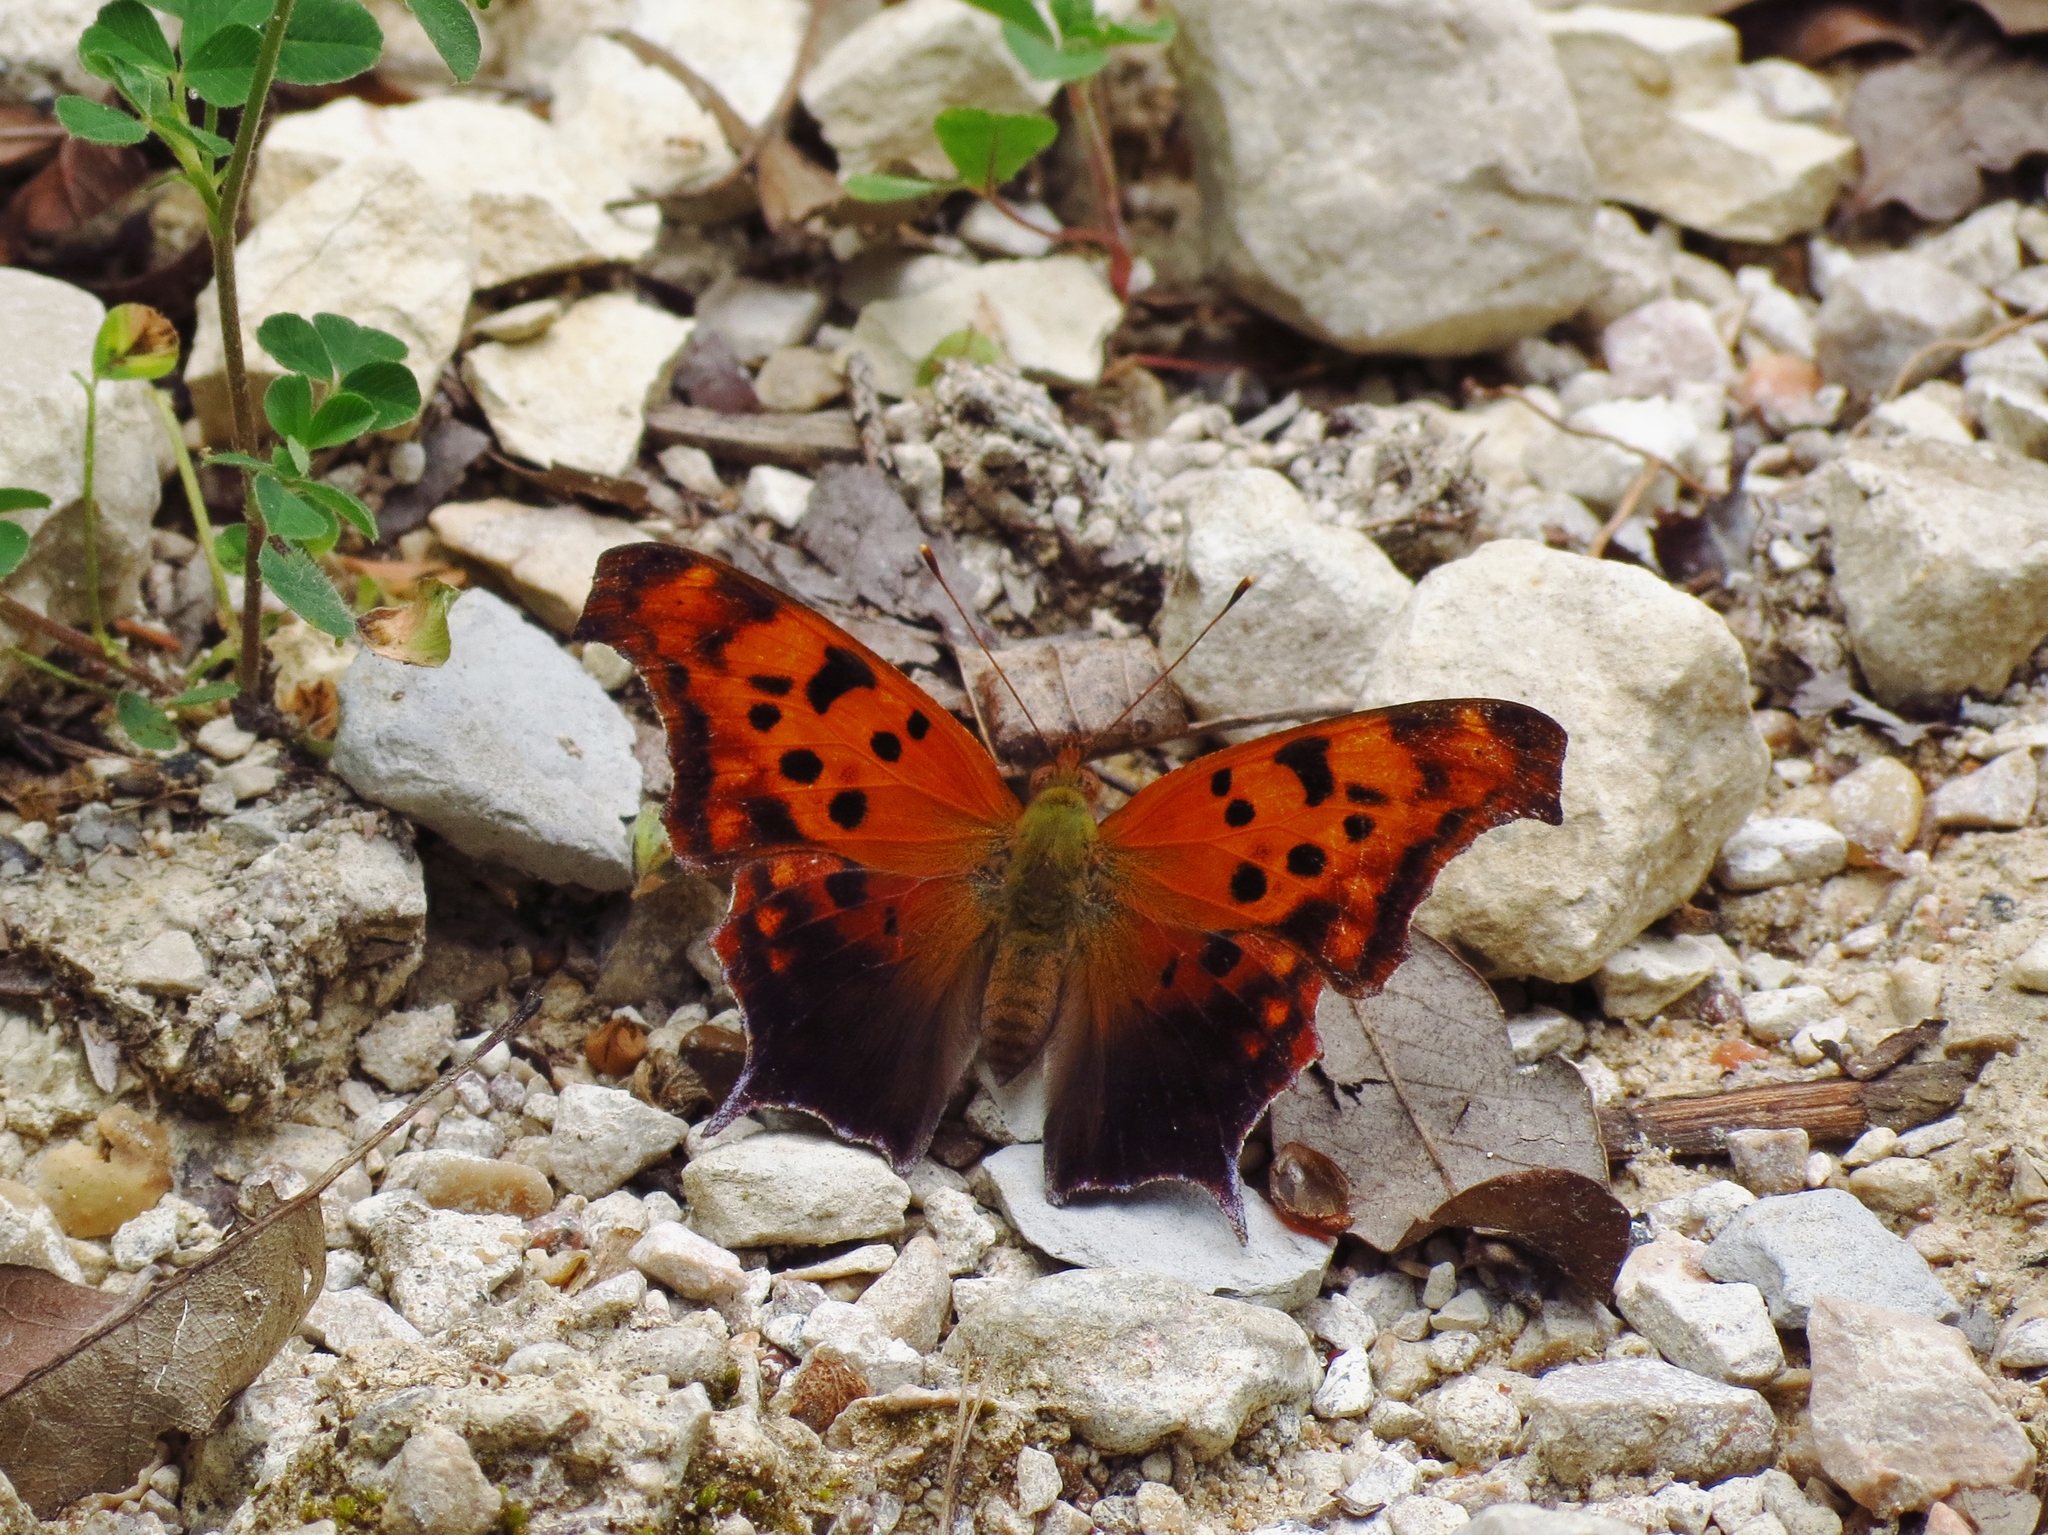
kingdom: Animalia
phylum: Arthropoda
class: Insecta
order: Lepidoptera
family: Nymphalidae
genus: Polygonia
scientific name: Polygonia interrogationis
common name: Question mark
